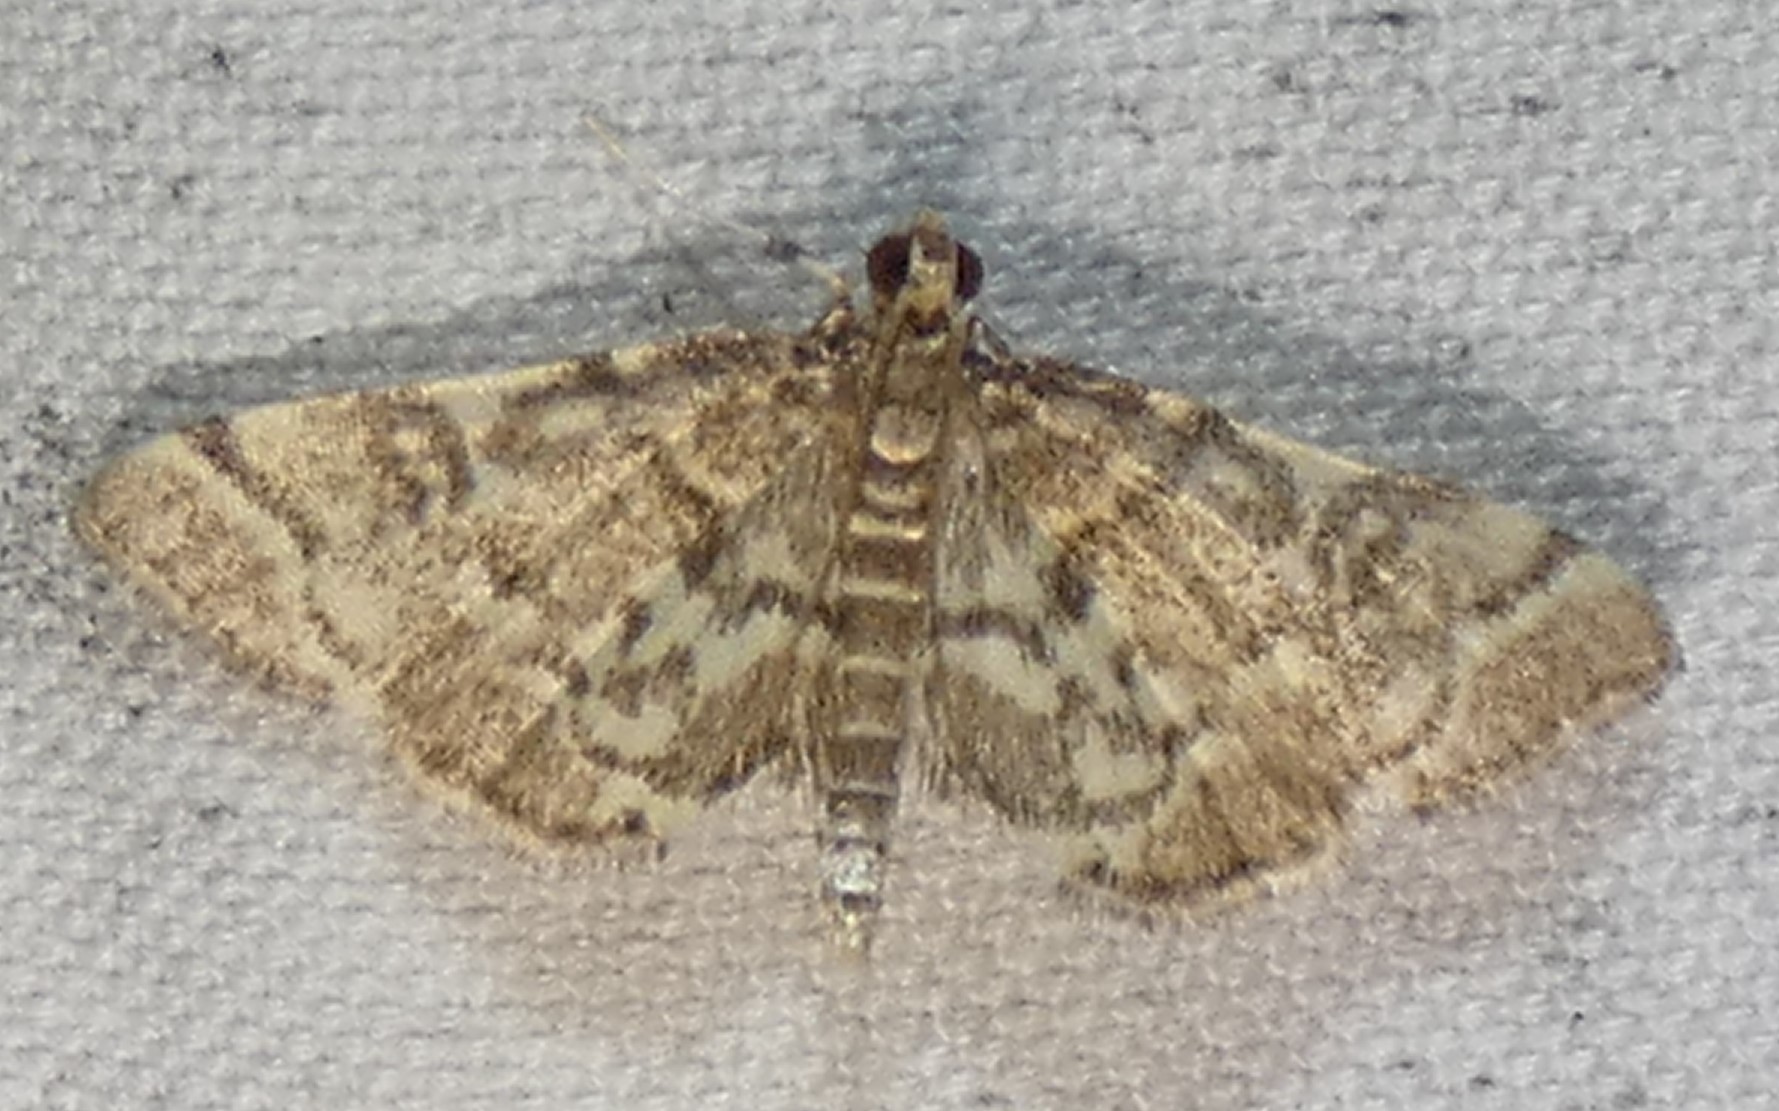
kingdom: Animalia
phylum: Arthropoda
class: Insecta
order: Lepidoptera
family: Crambidae
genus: Anageshna
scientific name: Anageshna primordialis
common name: Yellow-spotted webworm moth
